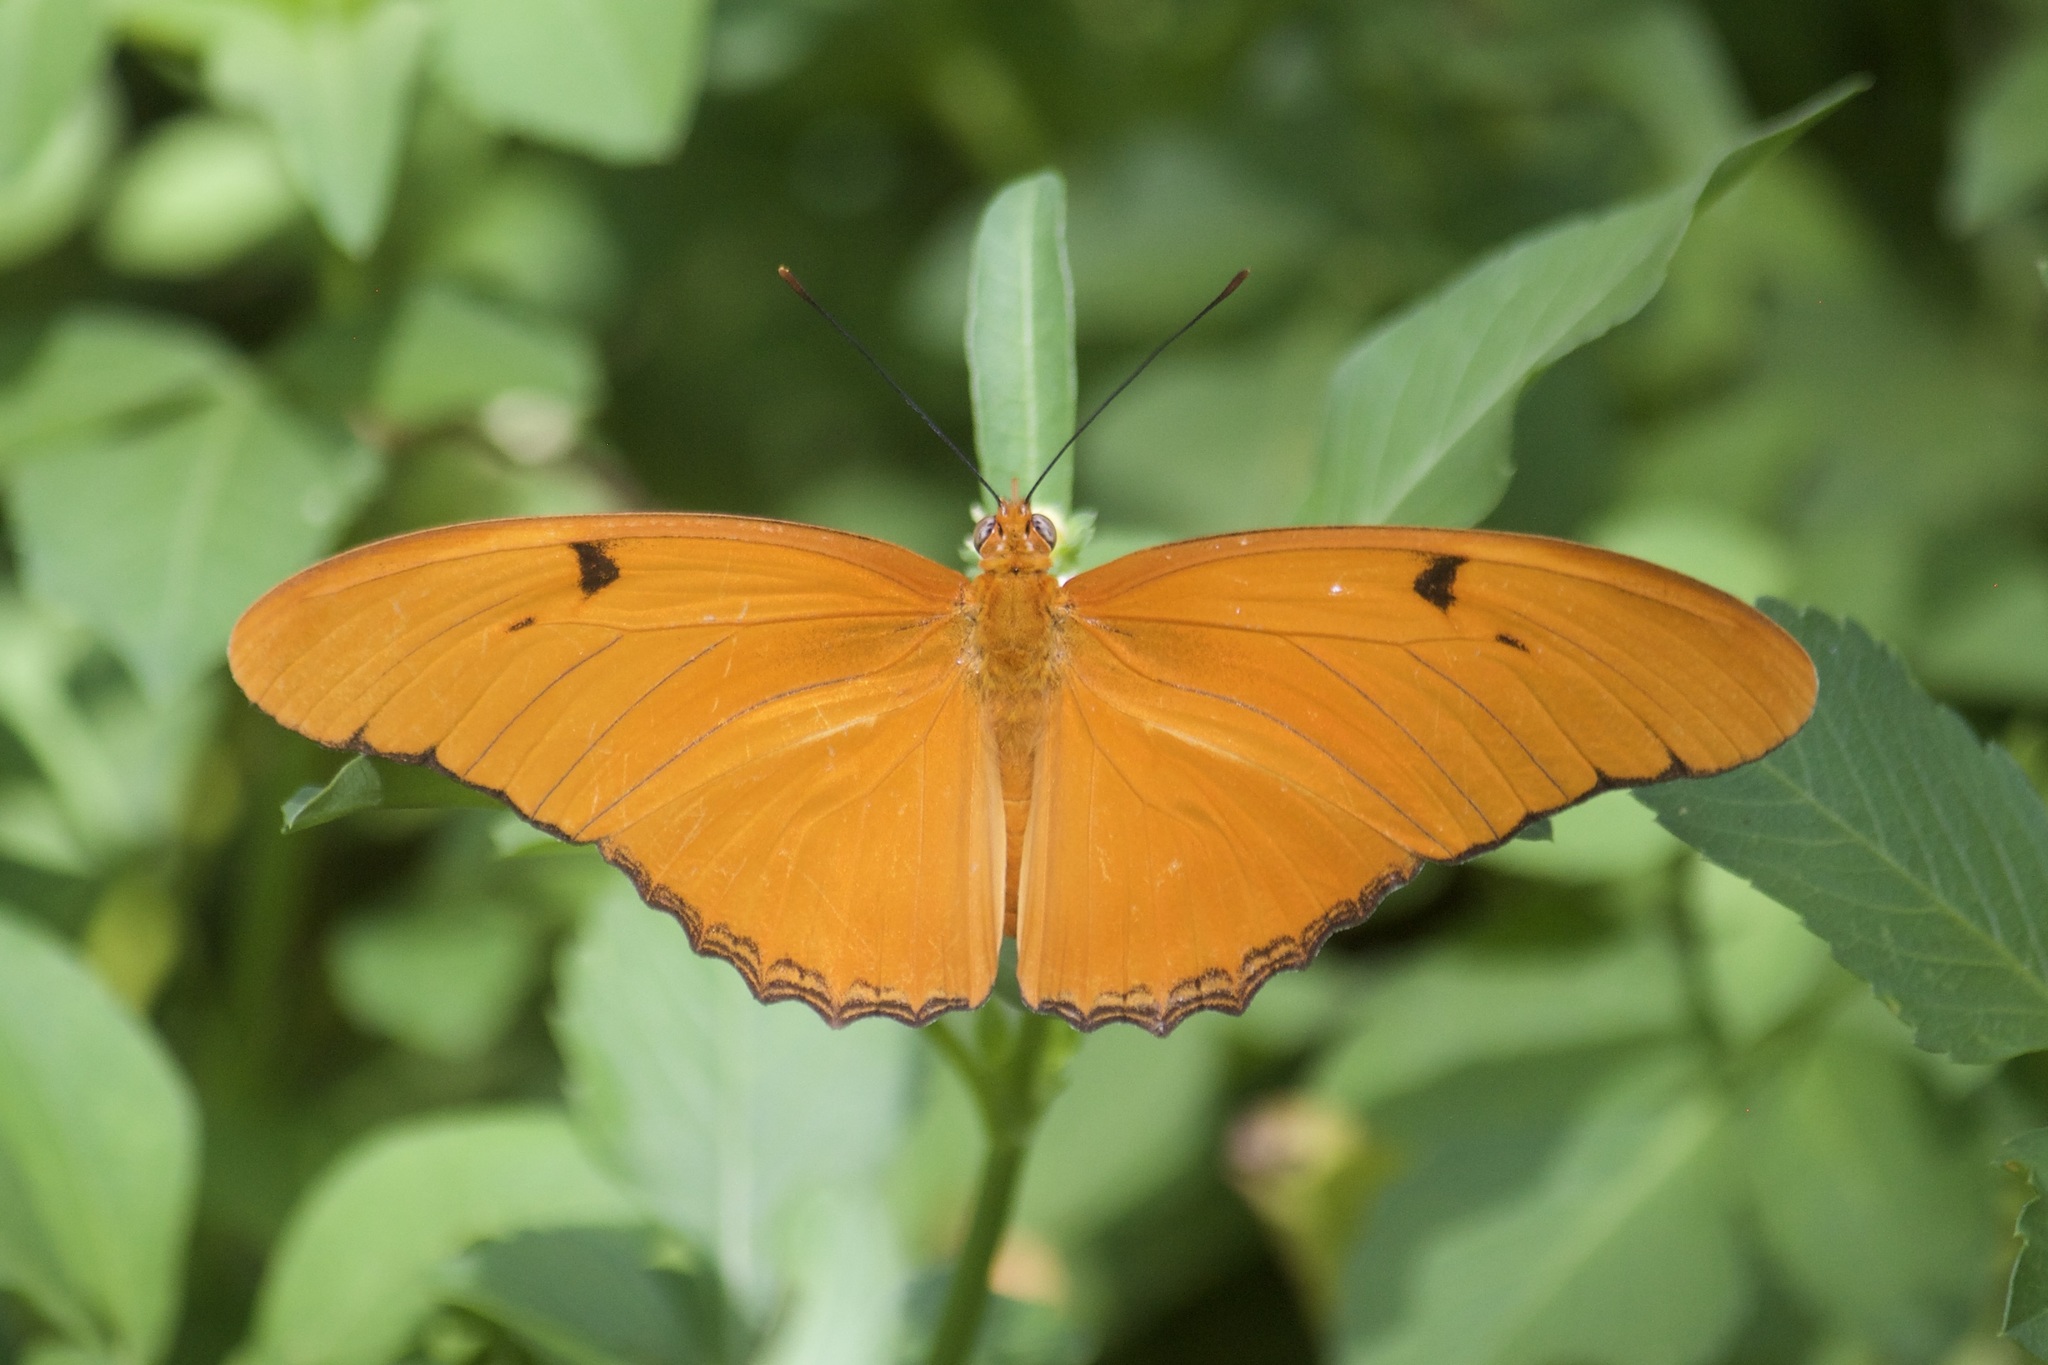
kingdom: Animalia
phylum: Arthropoda
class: Insecta
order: Lepidoptera
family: Nymphalidae
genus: Dryas
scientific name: Dryas iulia
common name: Flambeau
